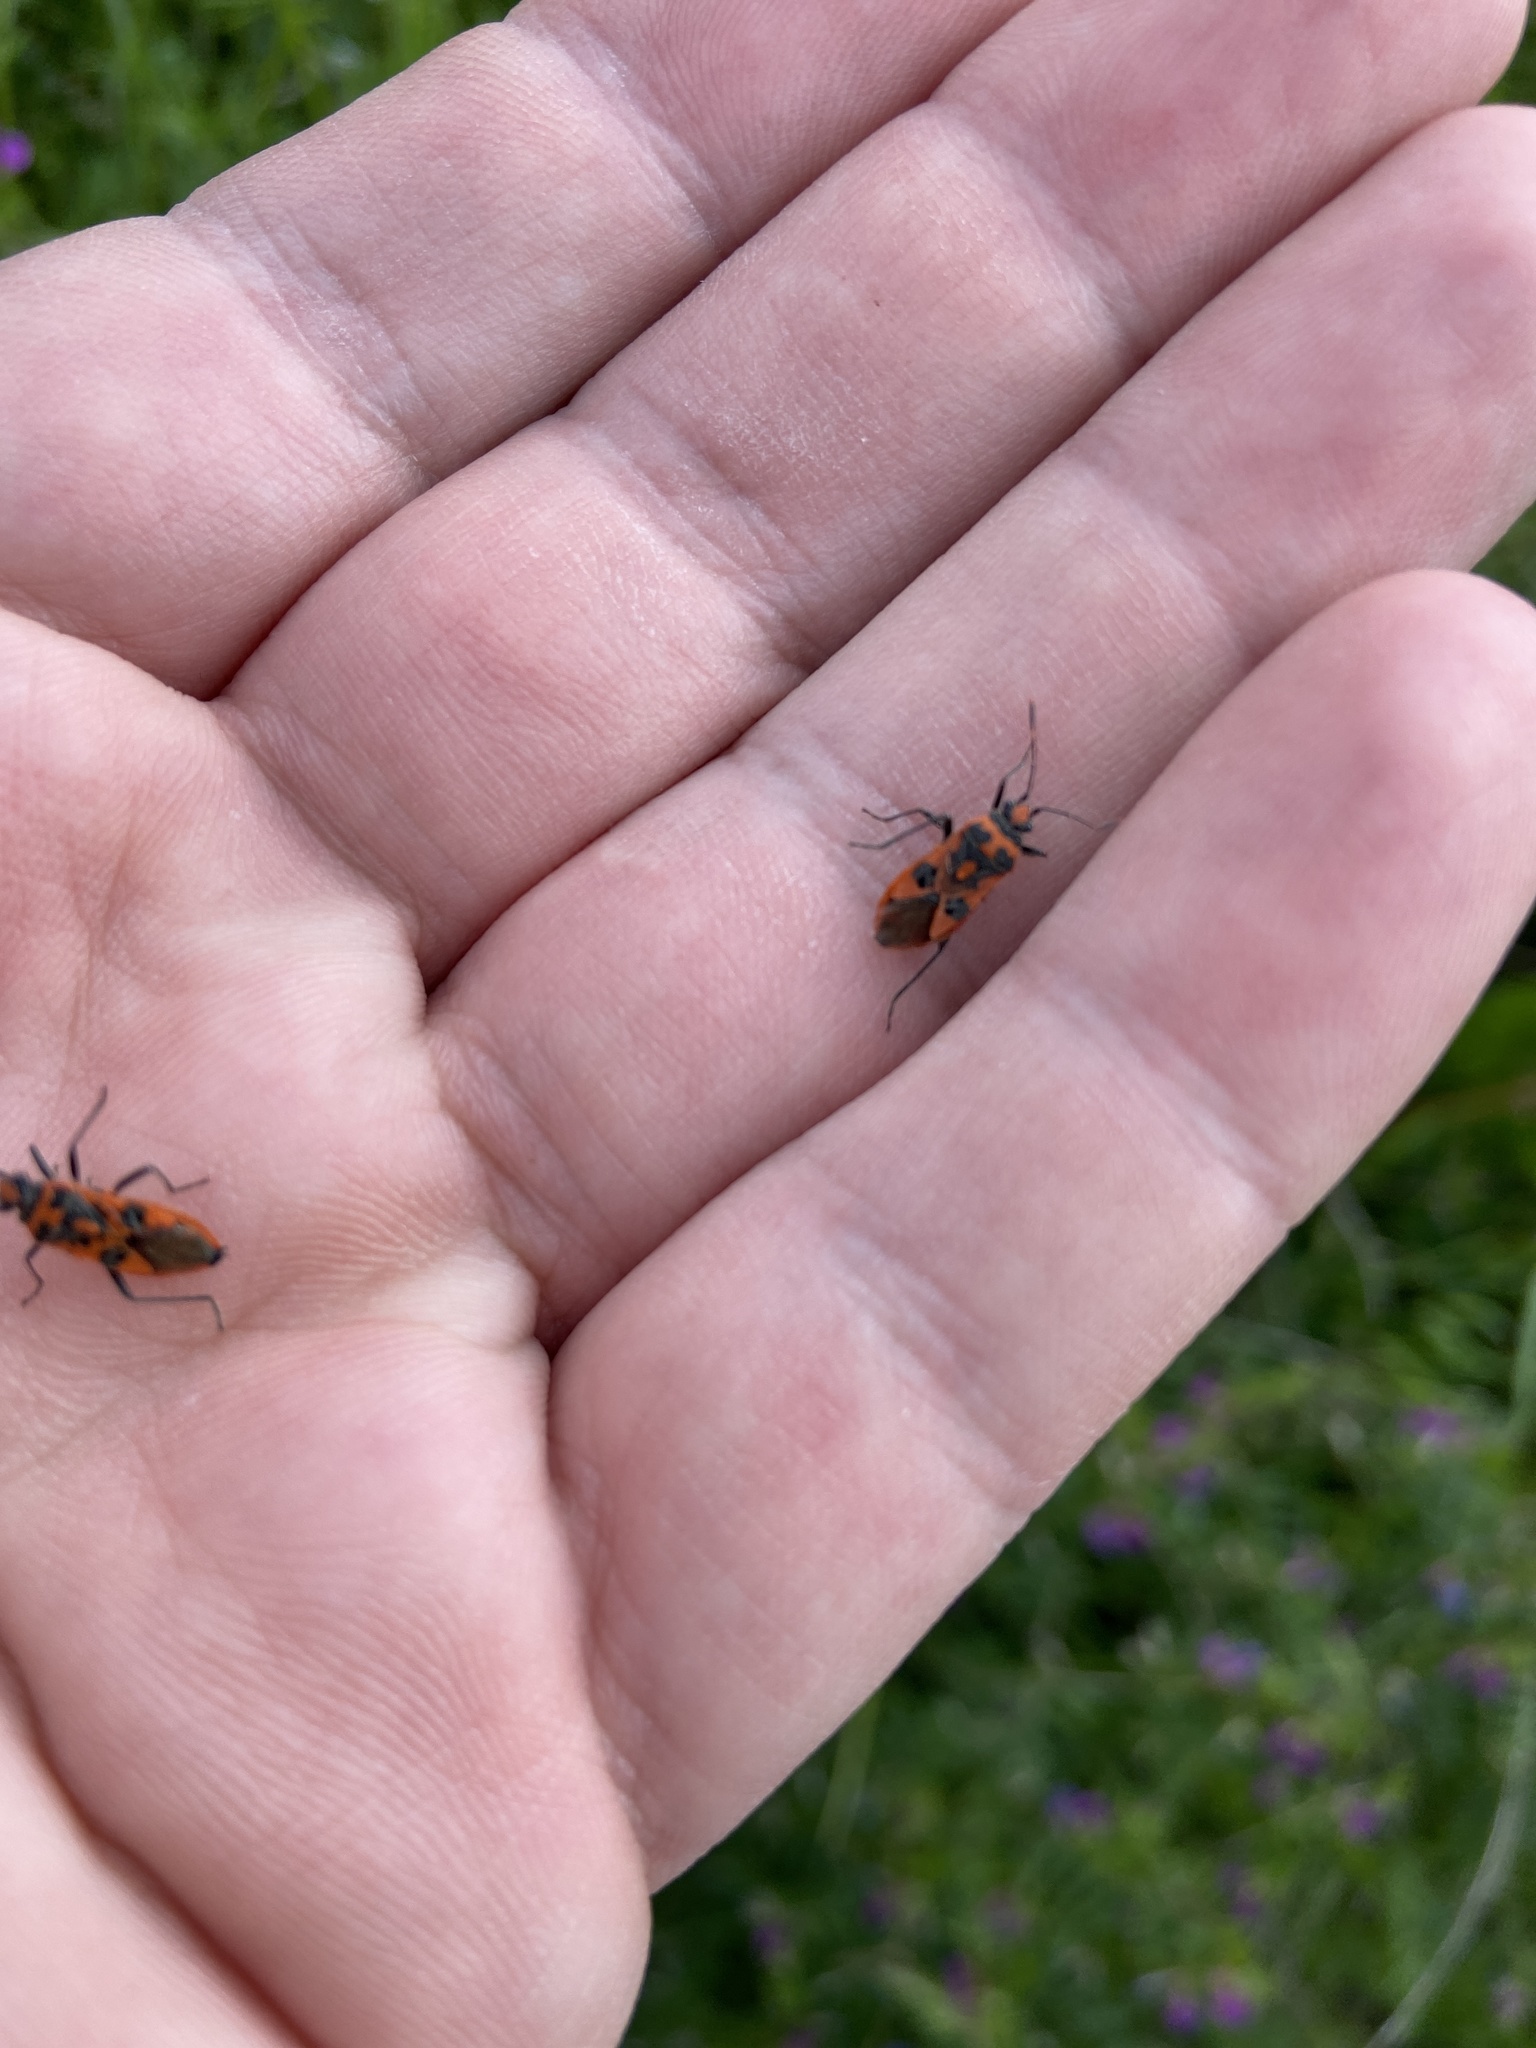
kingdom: Animalia
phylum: Arthropoda
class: Insecta
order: Hemiptera
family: Rhopalidae
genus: Corizus
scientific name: Corizus hyoscyami
